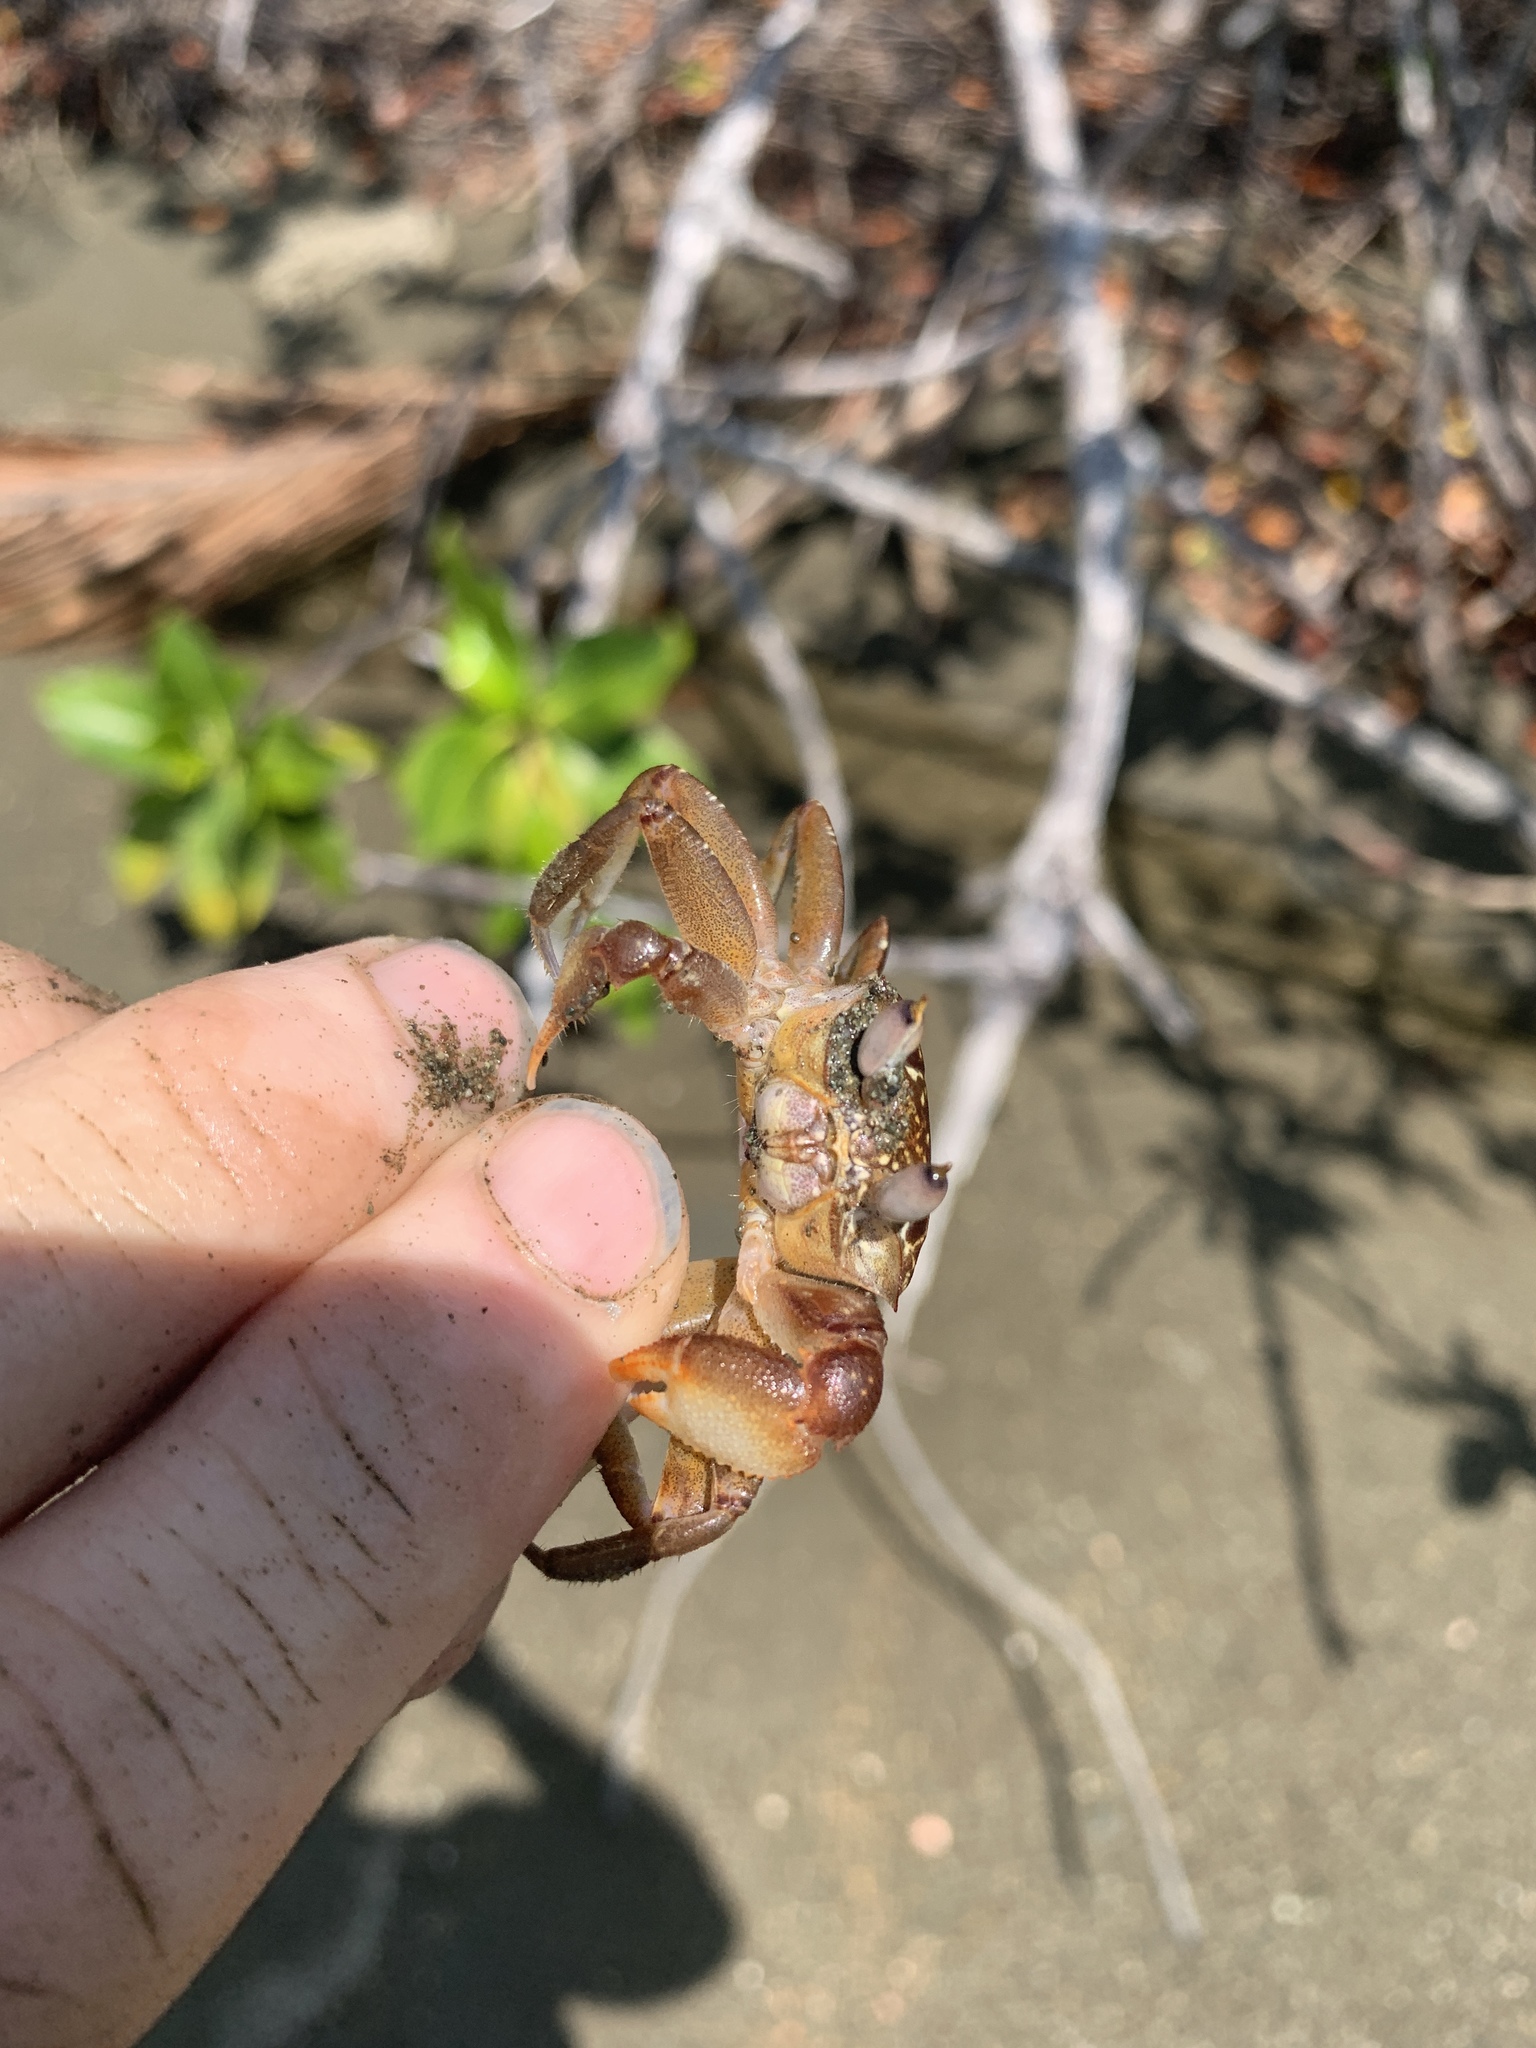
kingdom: Animalia
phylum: Arthropoda
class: Malacostraca
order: Decapoda
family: Ocypodidae
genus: Ocypode
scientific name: Ocypode gaudichaudii
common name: Pacific ghost crab
